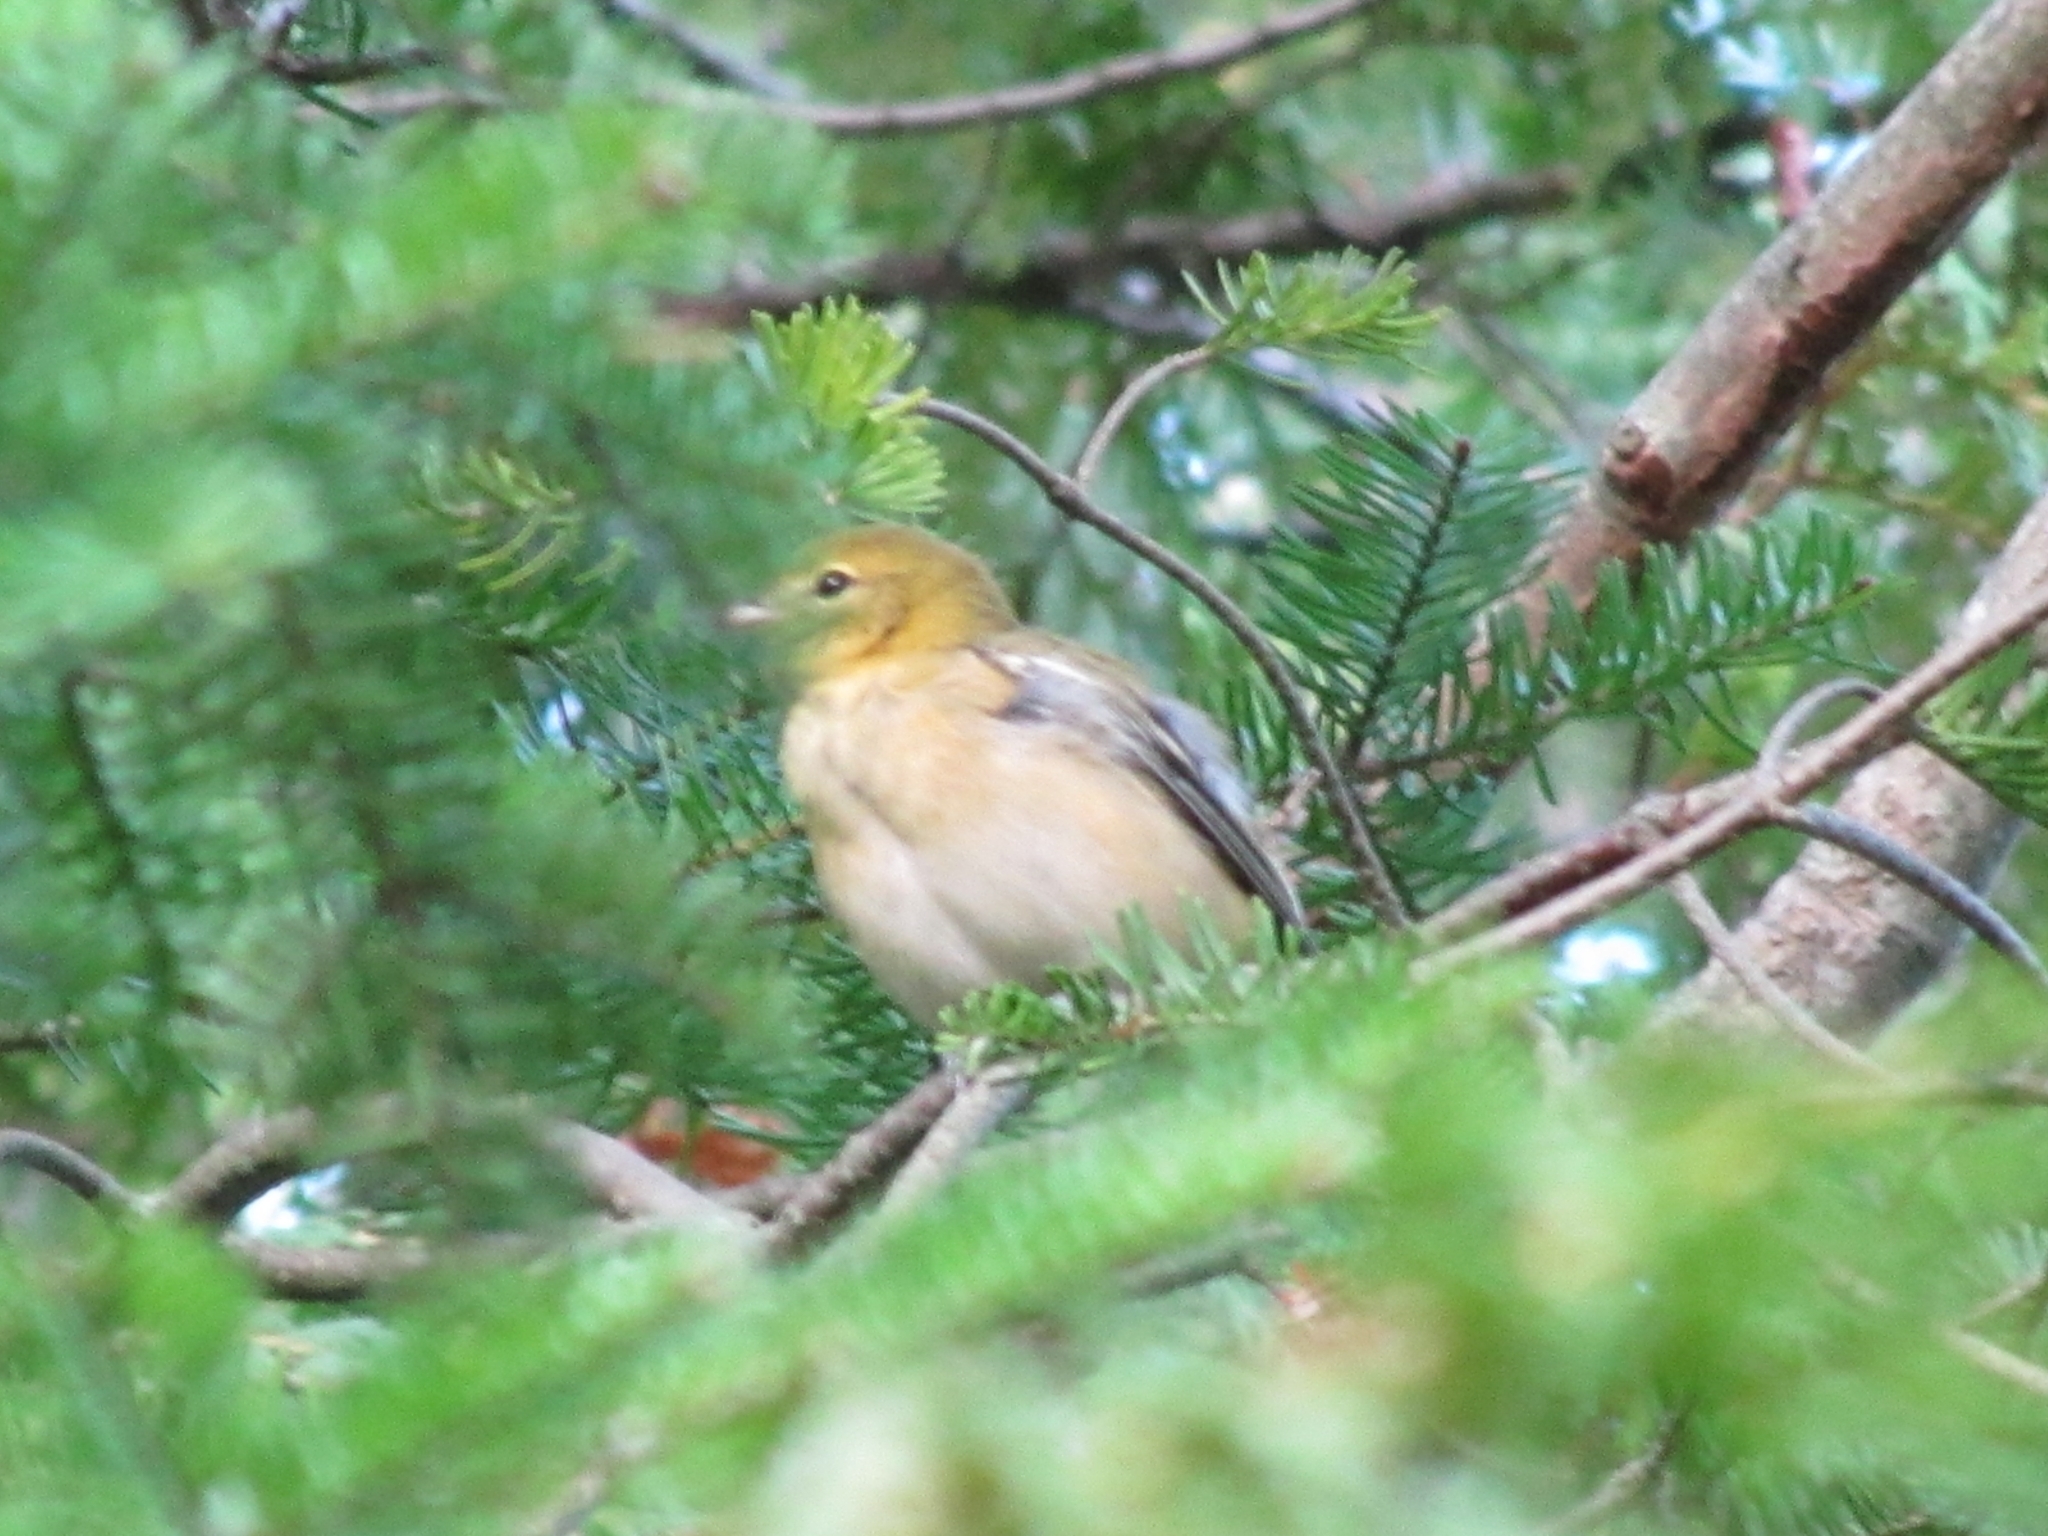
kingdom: Animalia
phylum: Chordata
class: Aves
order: Passeriformes
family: Parulidae
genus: Setophaga
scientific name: Setophaga castanea
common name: Bay-breasted warbler
